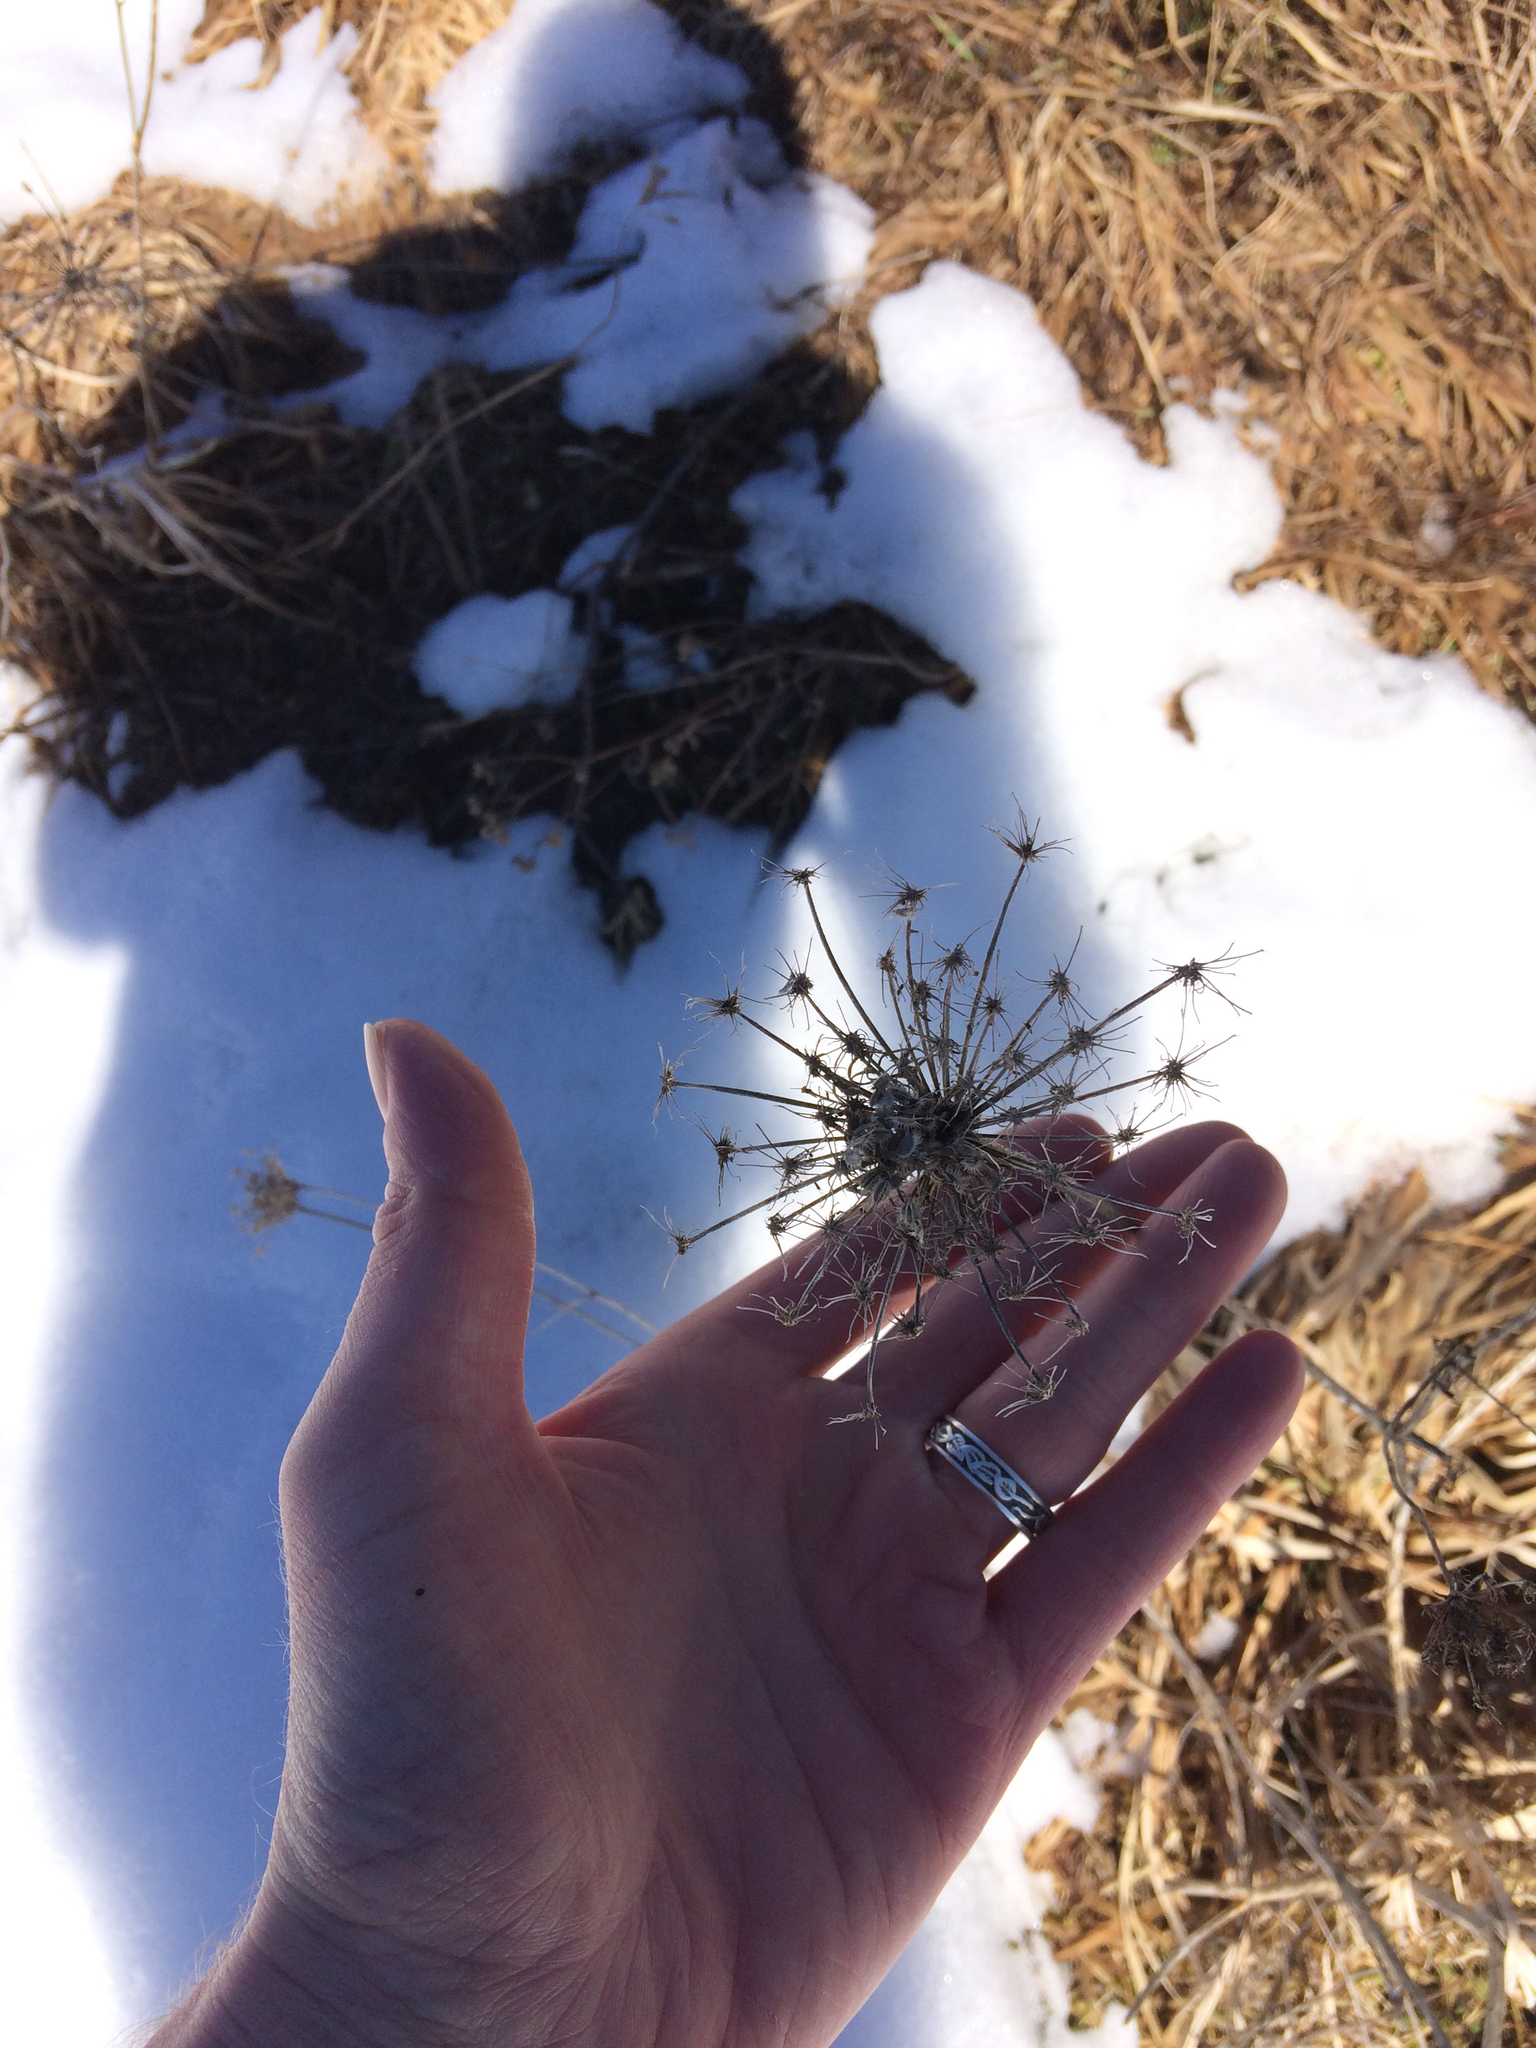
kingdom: Plantae
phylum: Tracheophyta
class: Magnoliopsida
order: Apiales
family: Apiaceae
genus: Daucus
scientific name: Daucus carota
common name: Wild carrot
